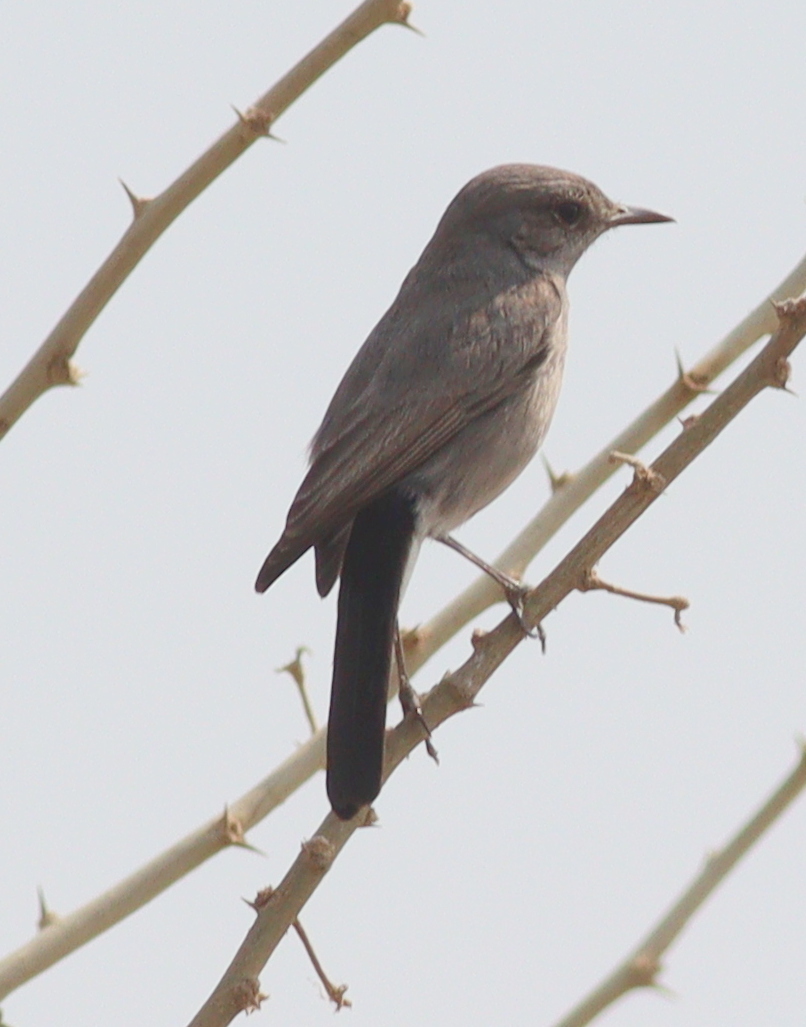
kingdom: Animalia
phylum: Chordata
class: Aves
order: Passeriformes
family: Muscicapidae
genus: Oenanthe
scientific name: Oenanthe melanura
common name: Blackstart
